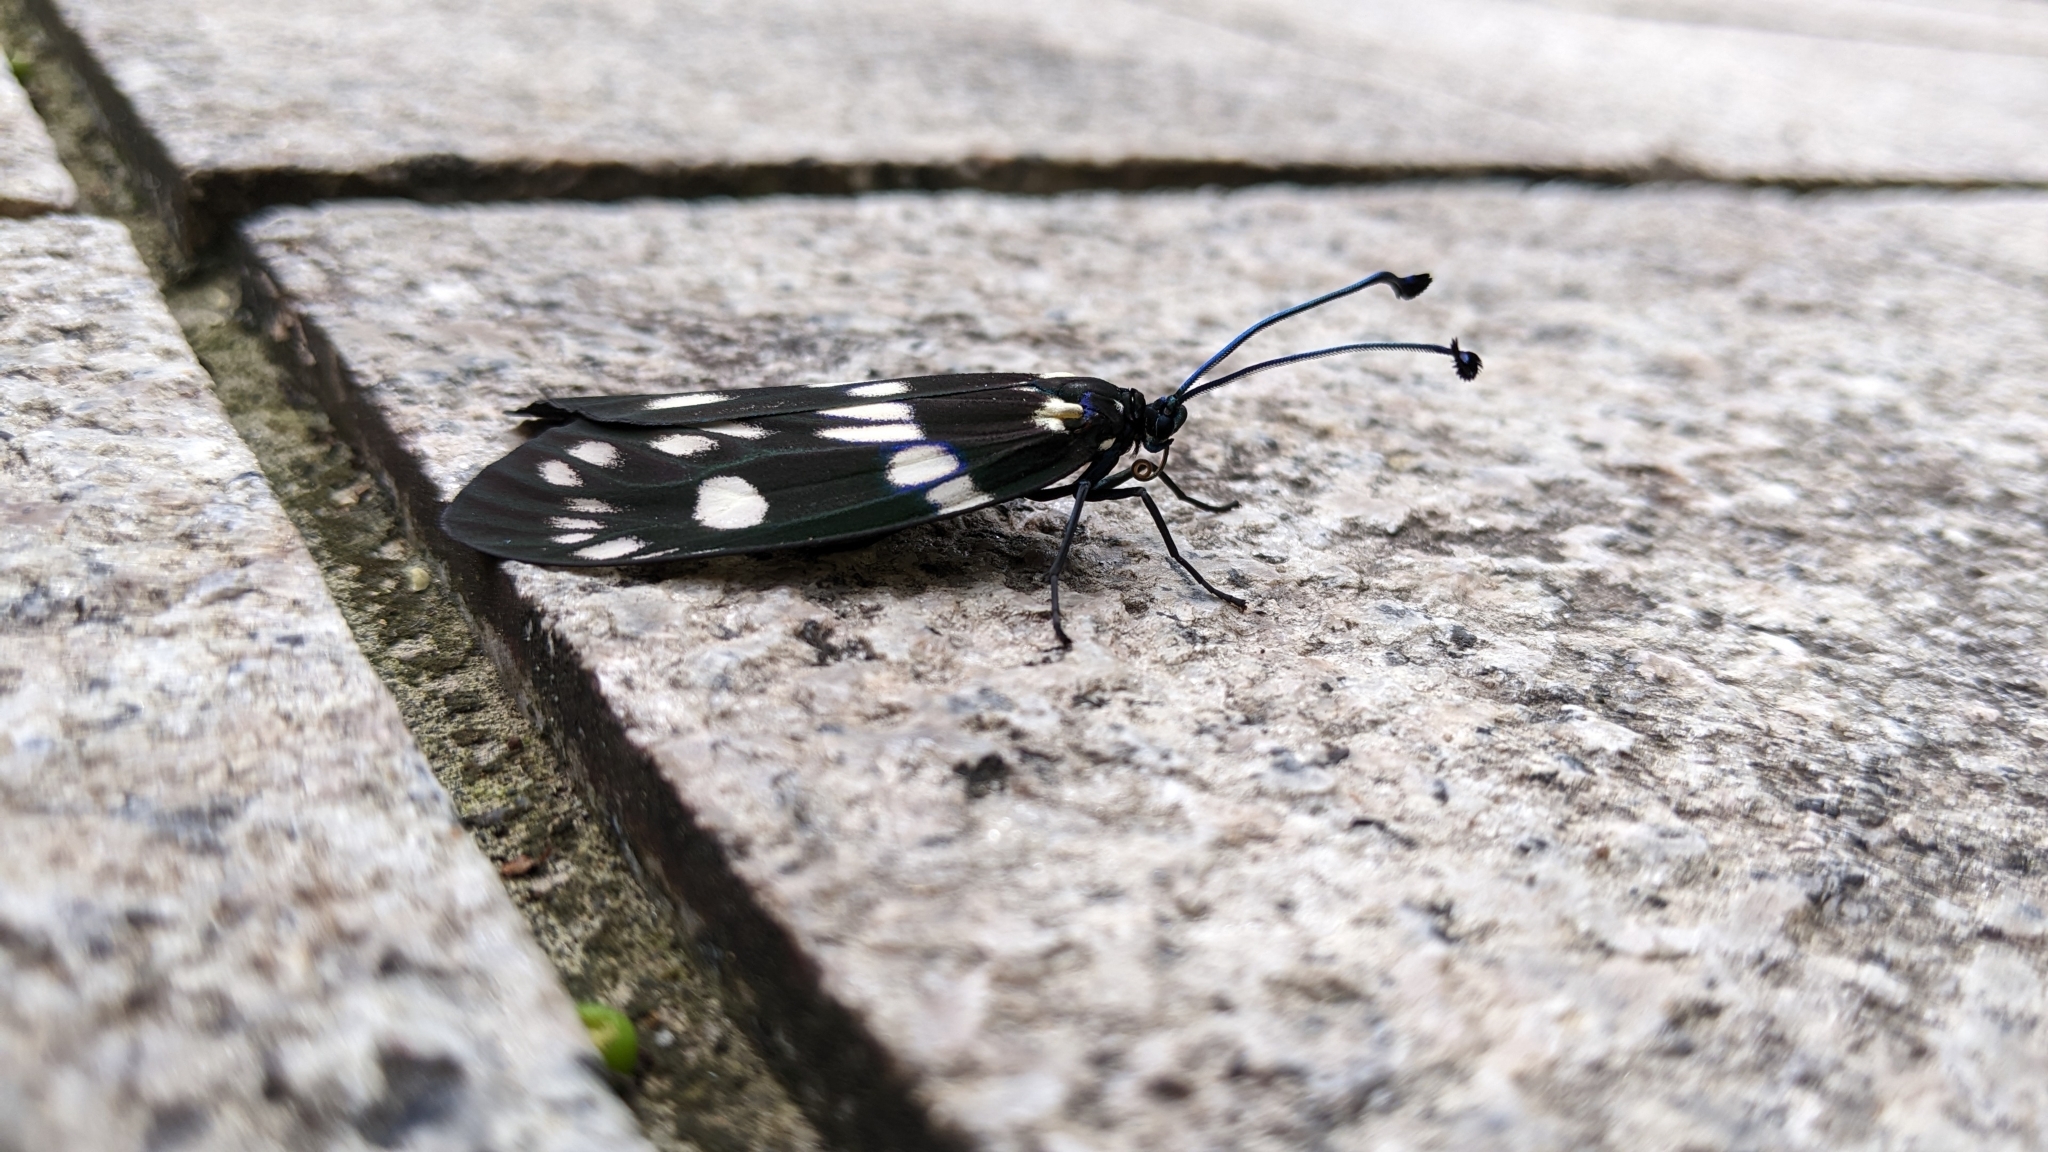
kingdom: Animalia
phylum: Arthropoda
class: Insecta
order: Lepidoptera
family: Zygaenidae
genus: Eterusia
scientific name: Eterusia aedea
